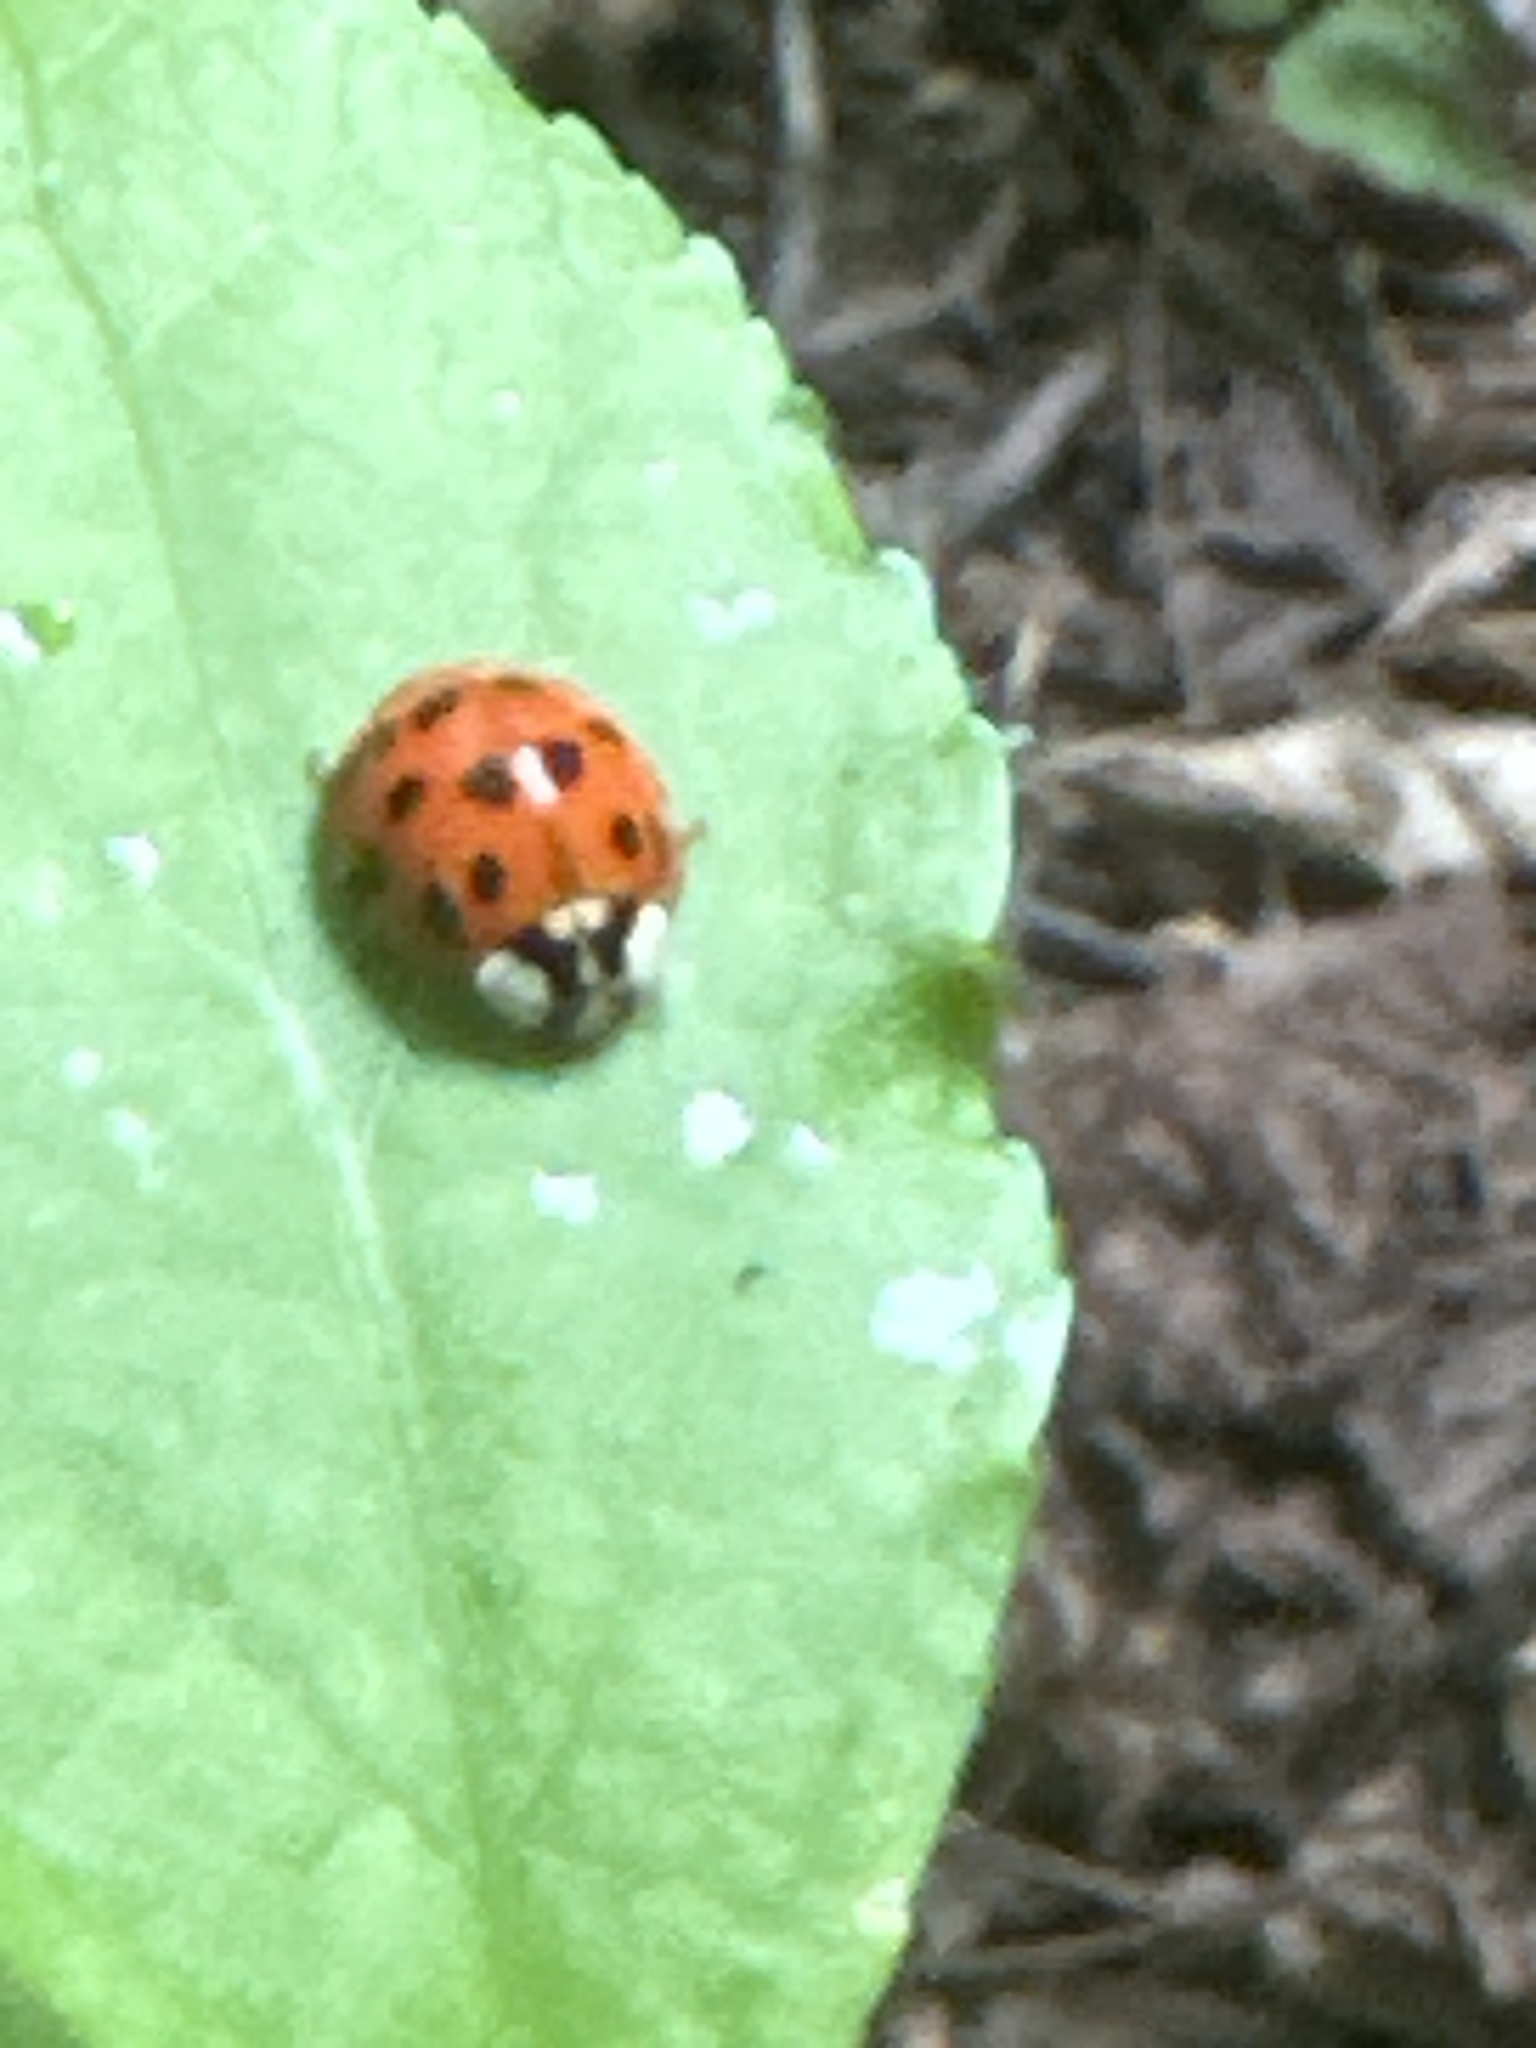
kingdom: Animalia
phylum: Arthropoda
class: Insecta
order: Coleoptera
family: Coccinellidae
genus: Harmonia
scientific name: Harmonia axyridis
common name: Harlequin ladybird
